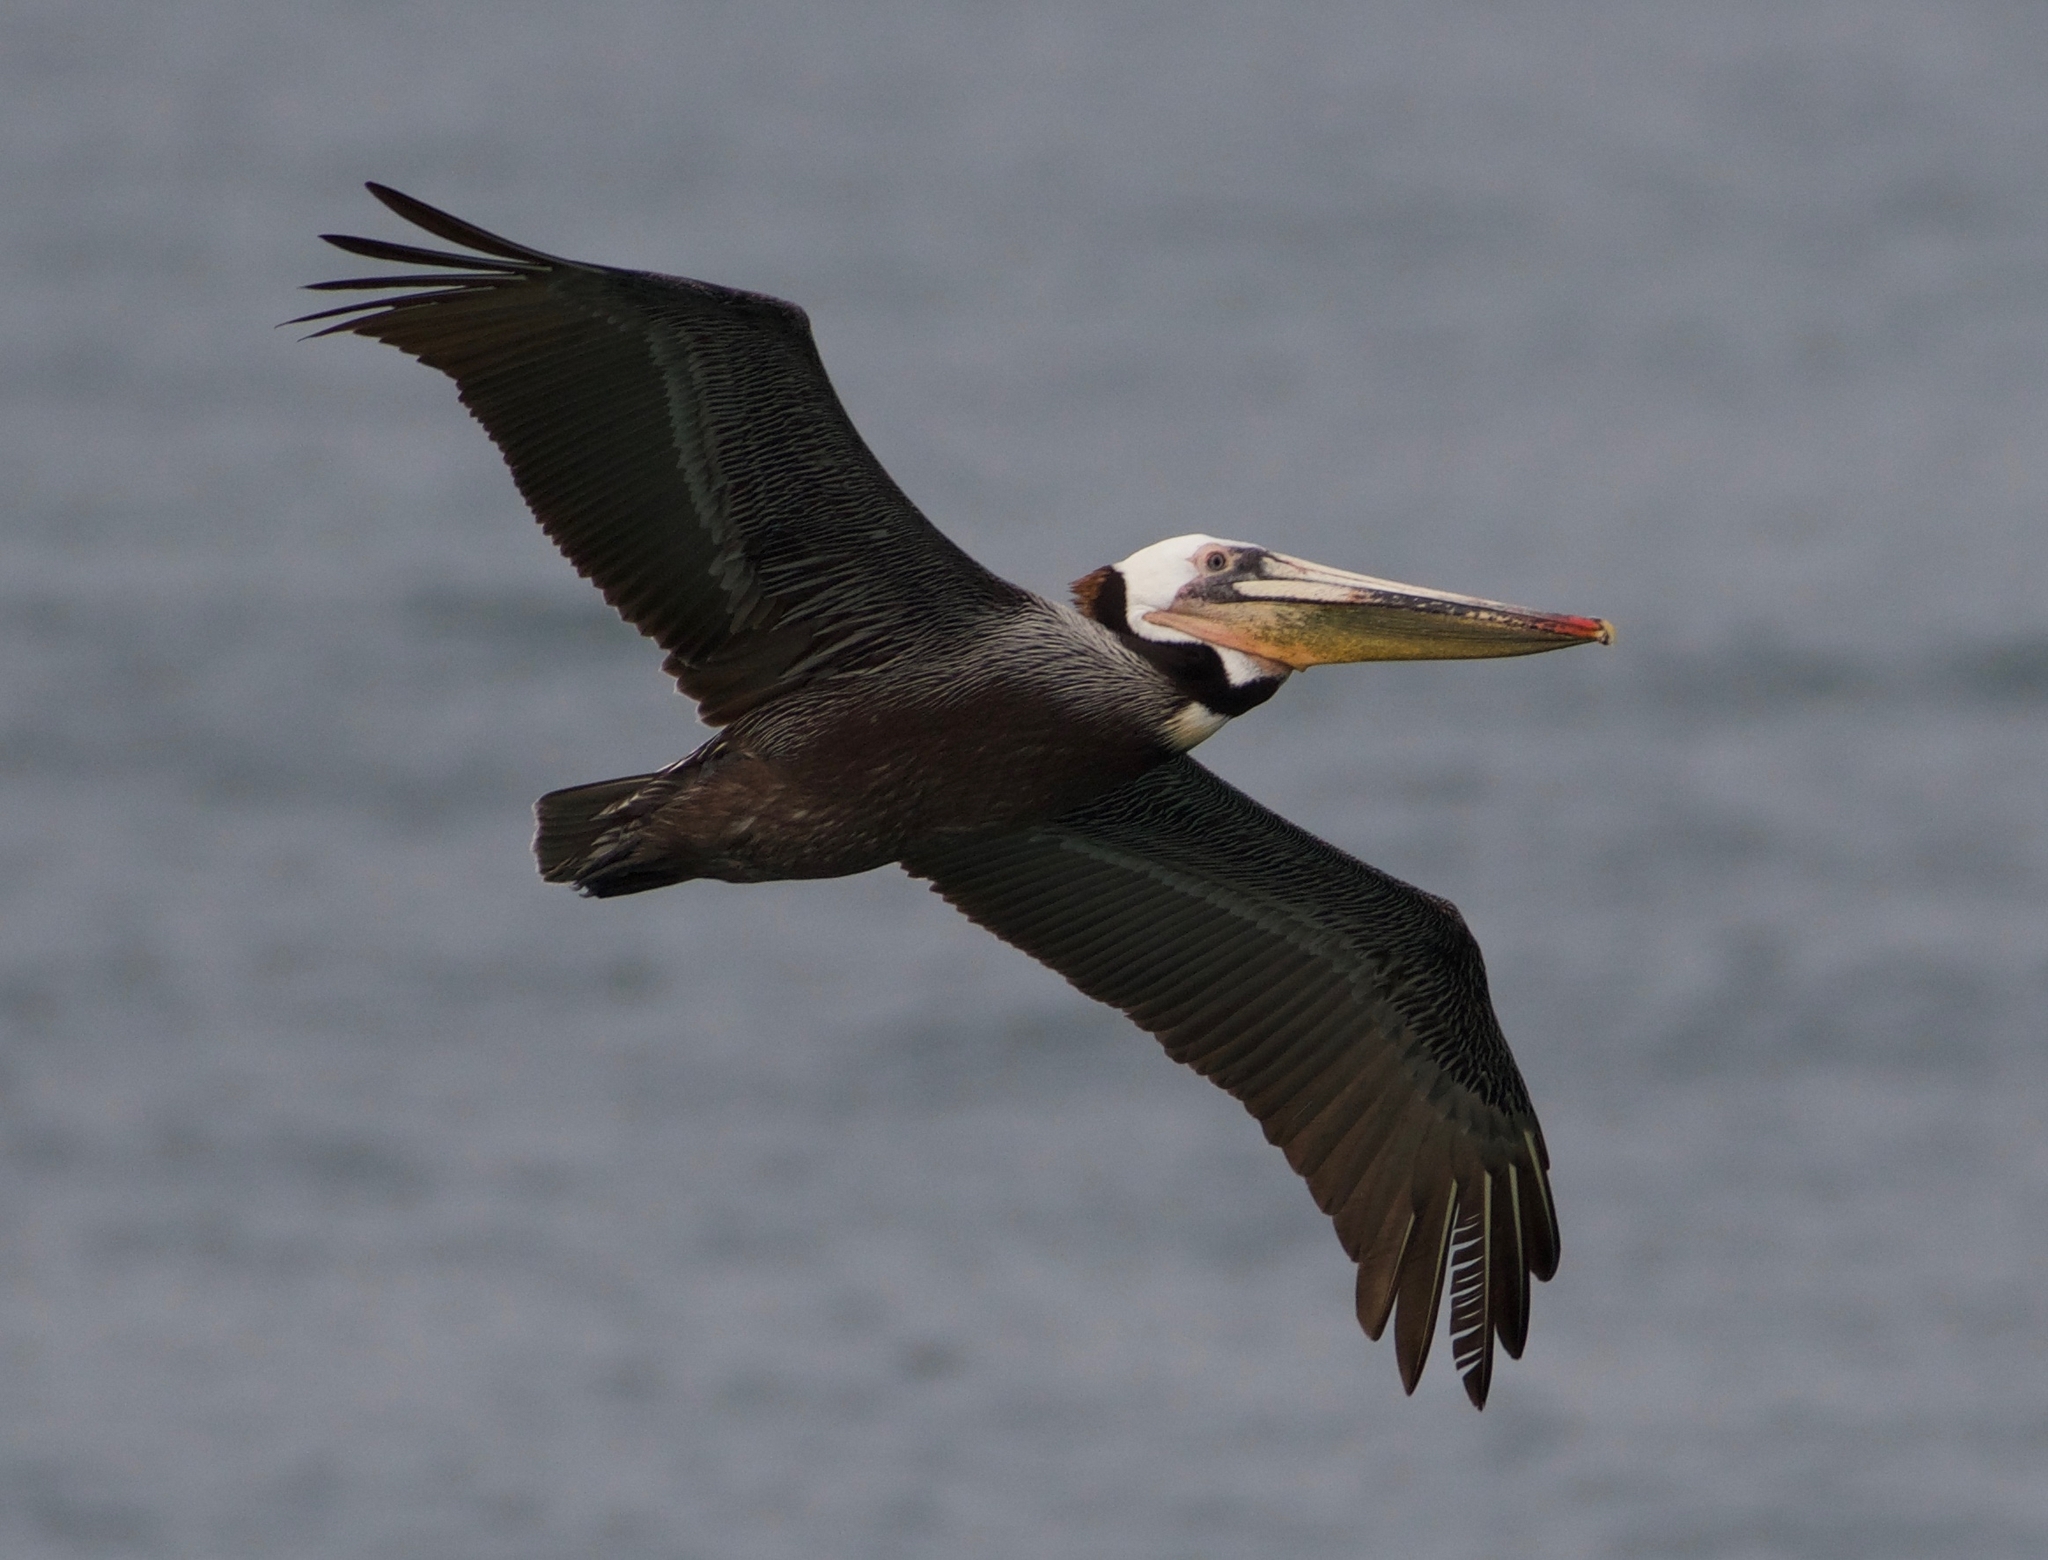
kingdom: Animalia
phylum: Chordata
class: Aves
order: Pelecaniformes
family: Pelecanidae
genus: Pelecanus
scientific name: Pelecanus occidentalis
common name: Brown pelican
